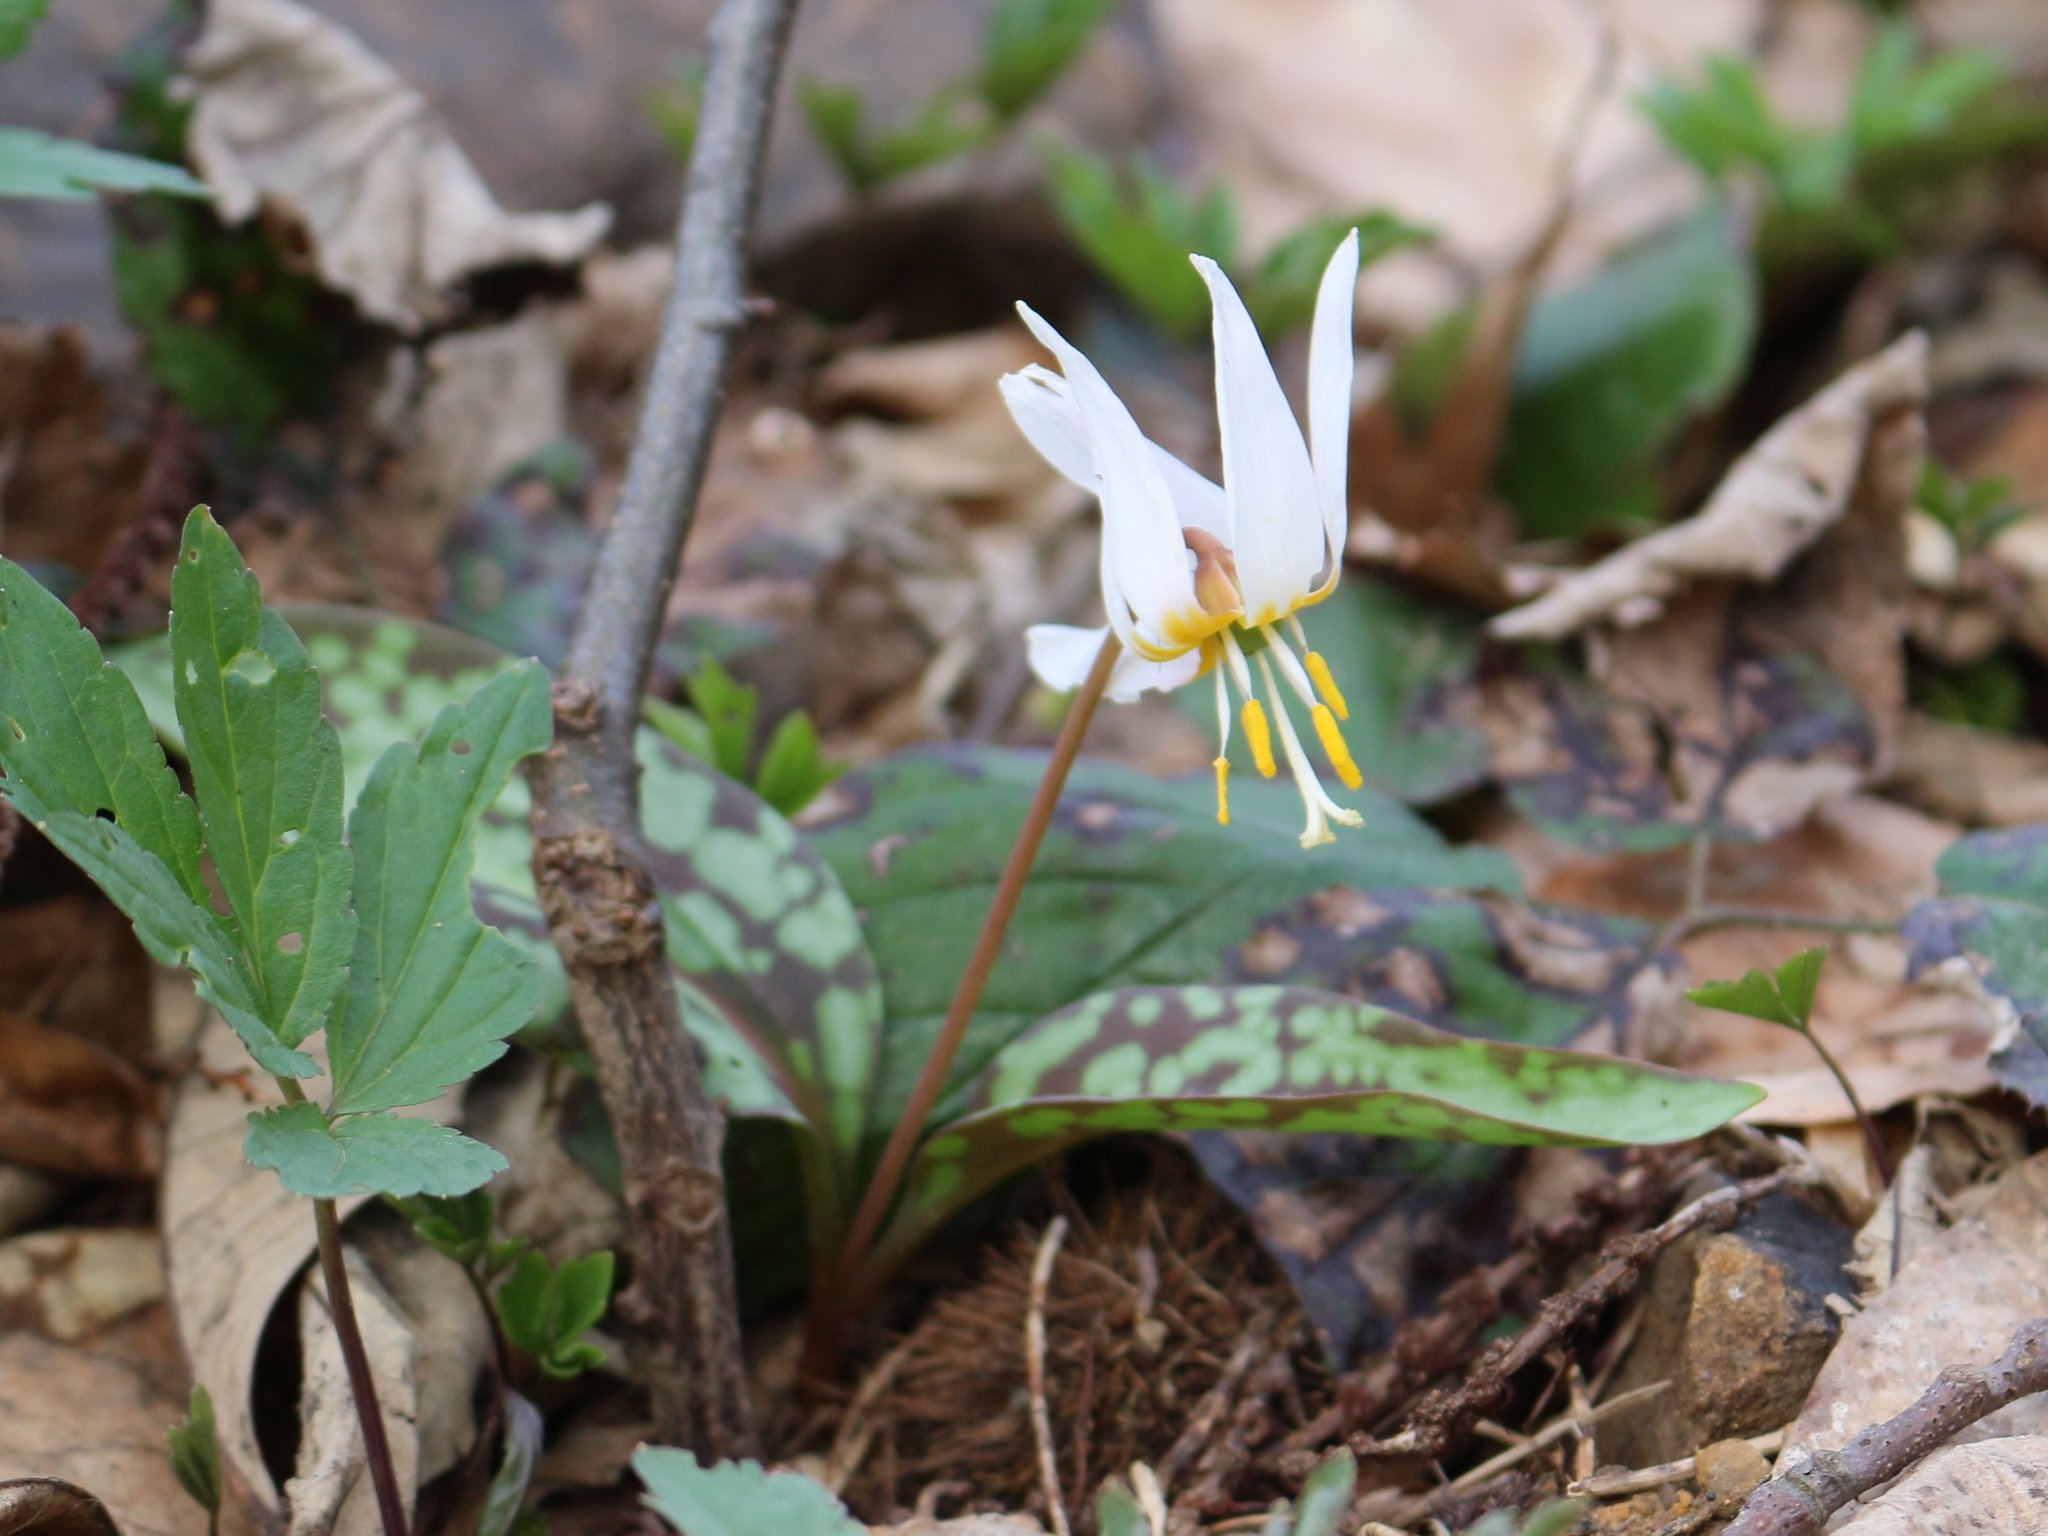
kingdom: Plantae
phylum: Tracheophyta
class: Liliopsida
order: Liliales
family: Liliaceae
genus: Erythronium
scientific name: Erythronium caucasicum
